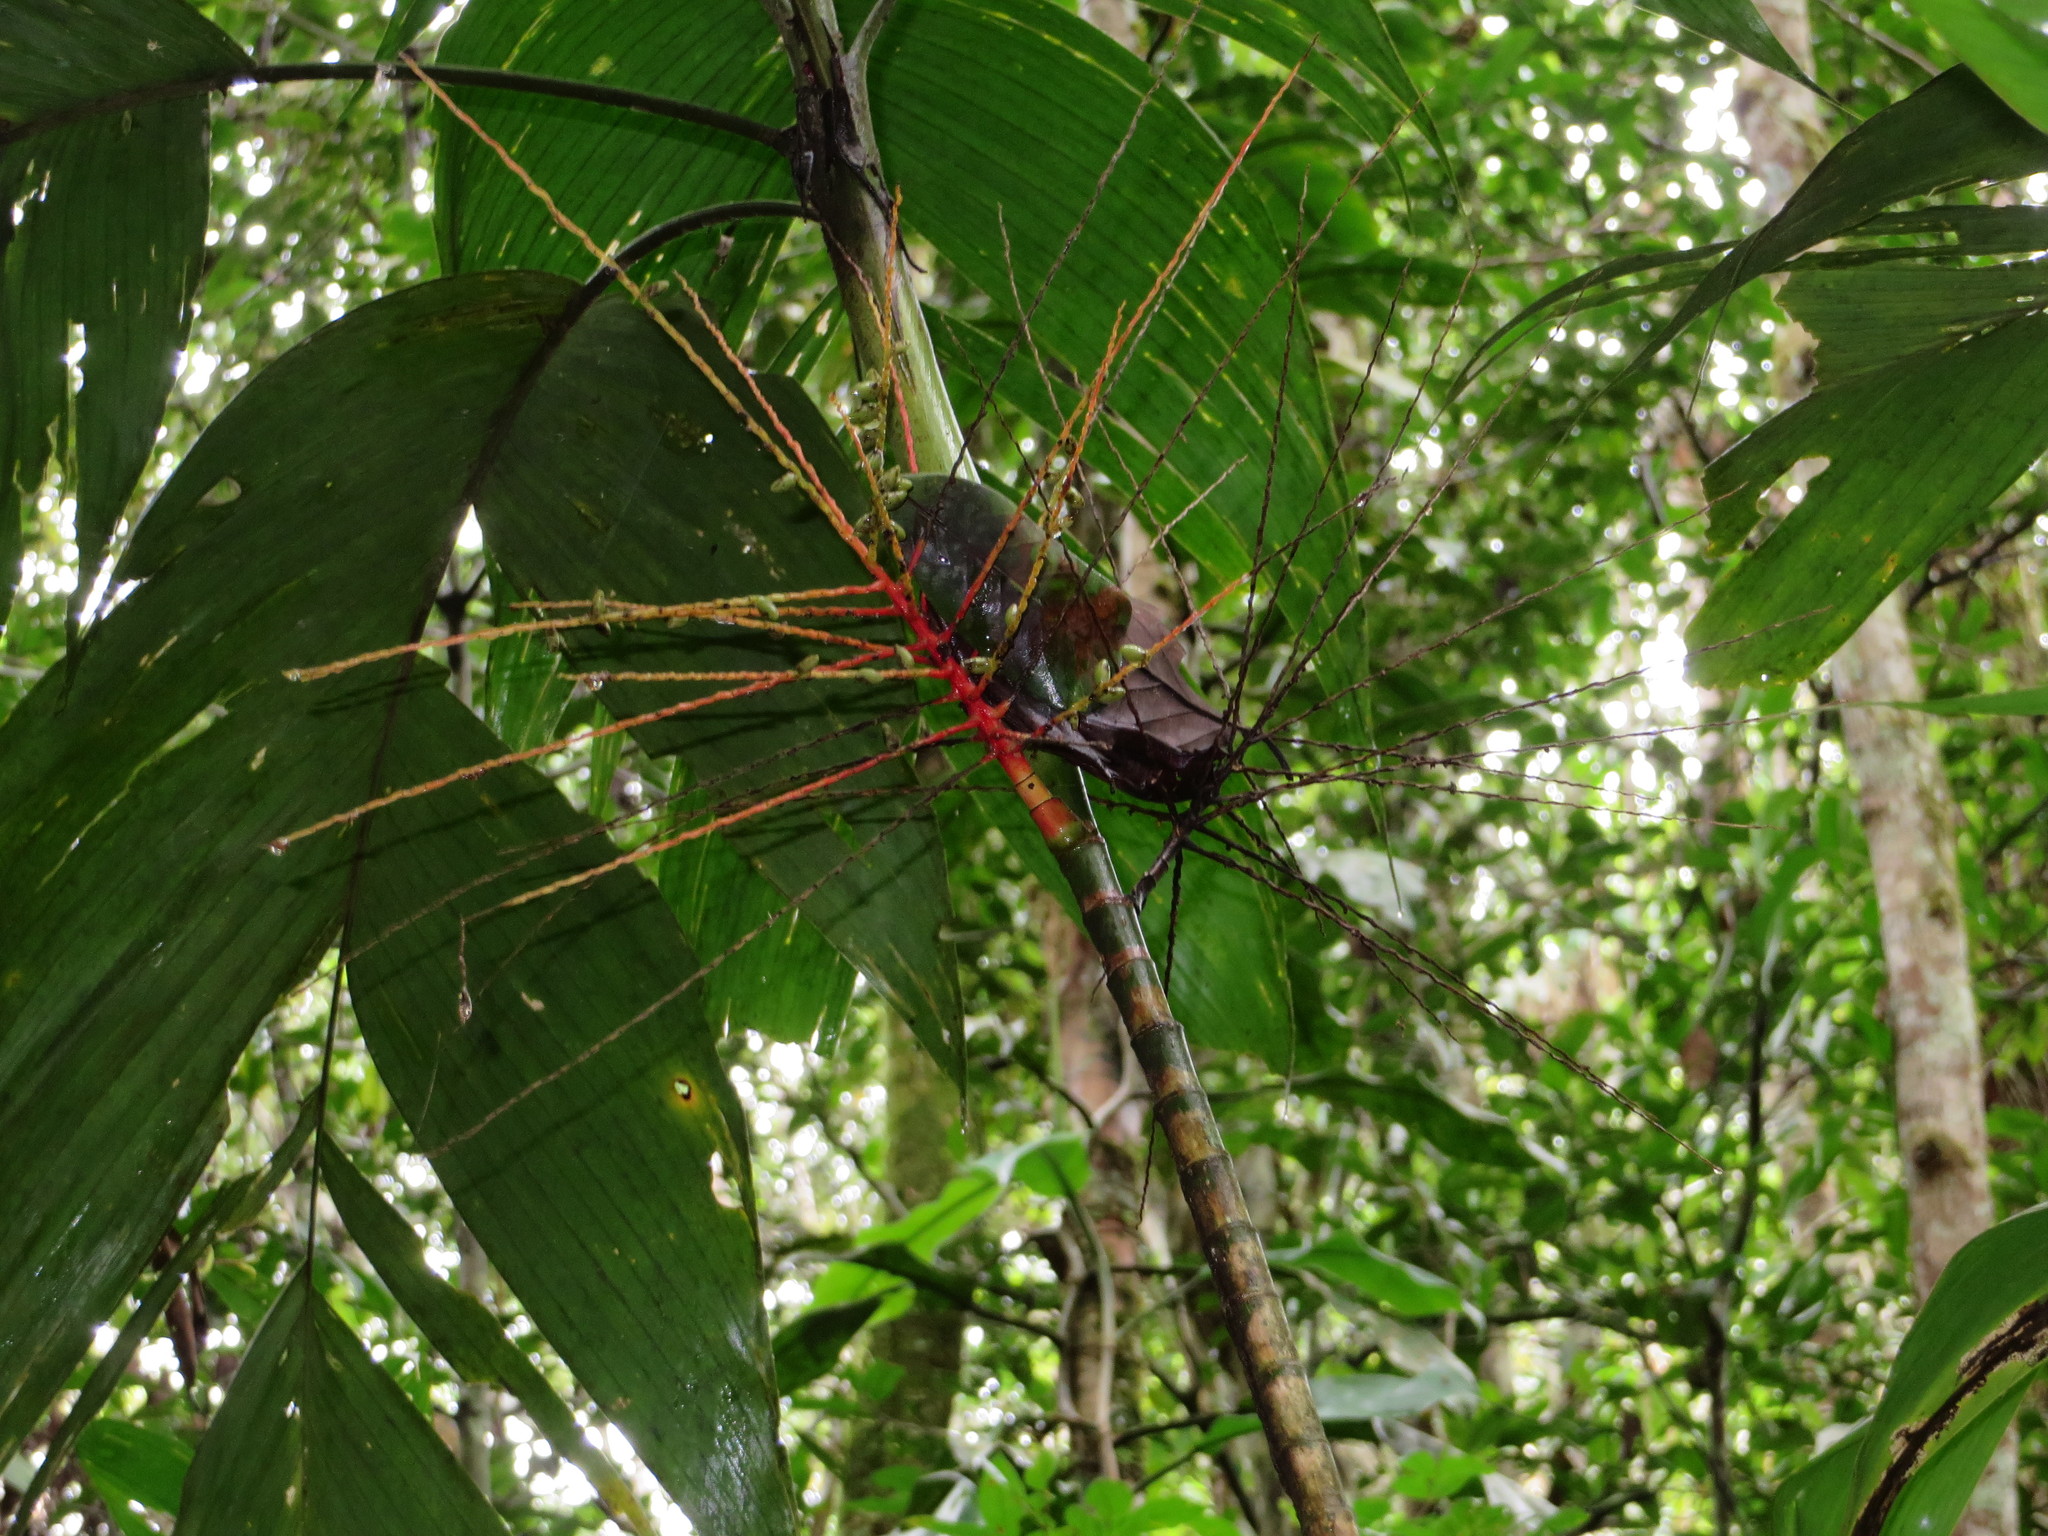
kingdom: Plantae
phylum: Tracheophyta
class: Liliopsida
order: Arecales
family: Arecaceae
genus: Hyospathe
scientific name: Hyospathe elegans
